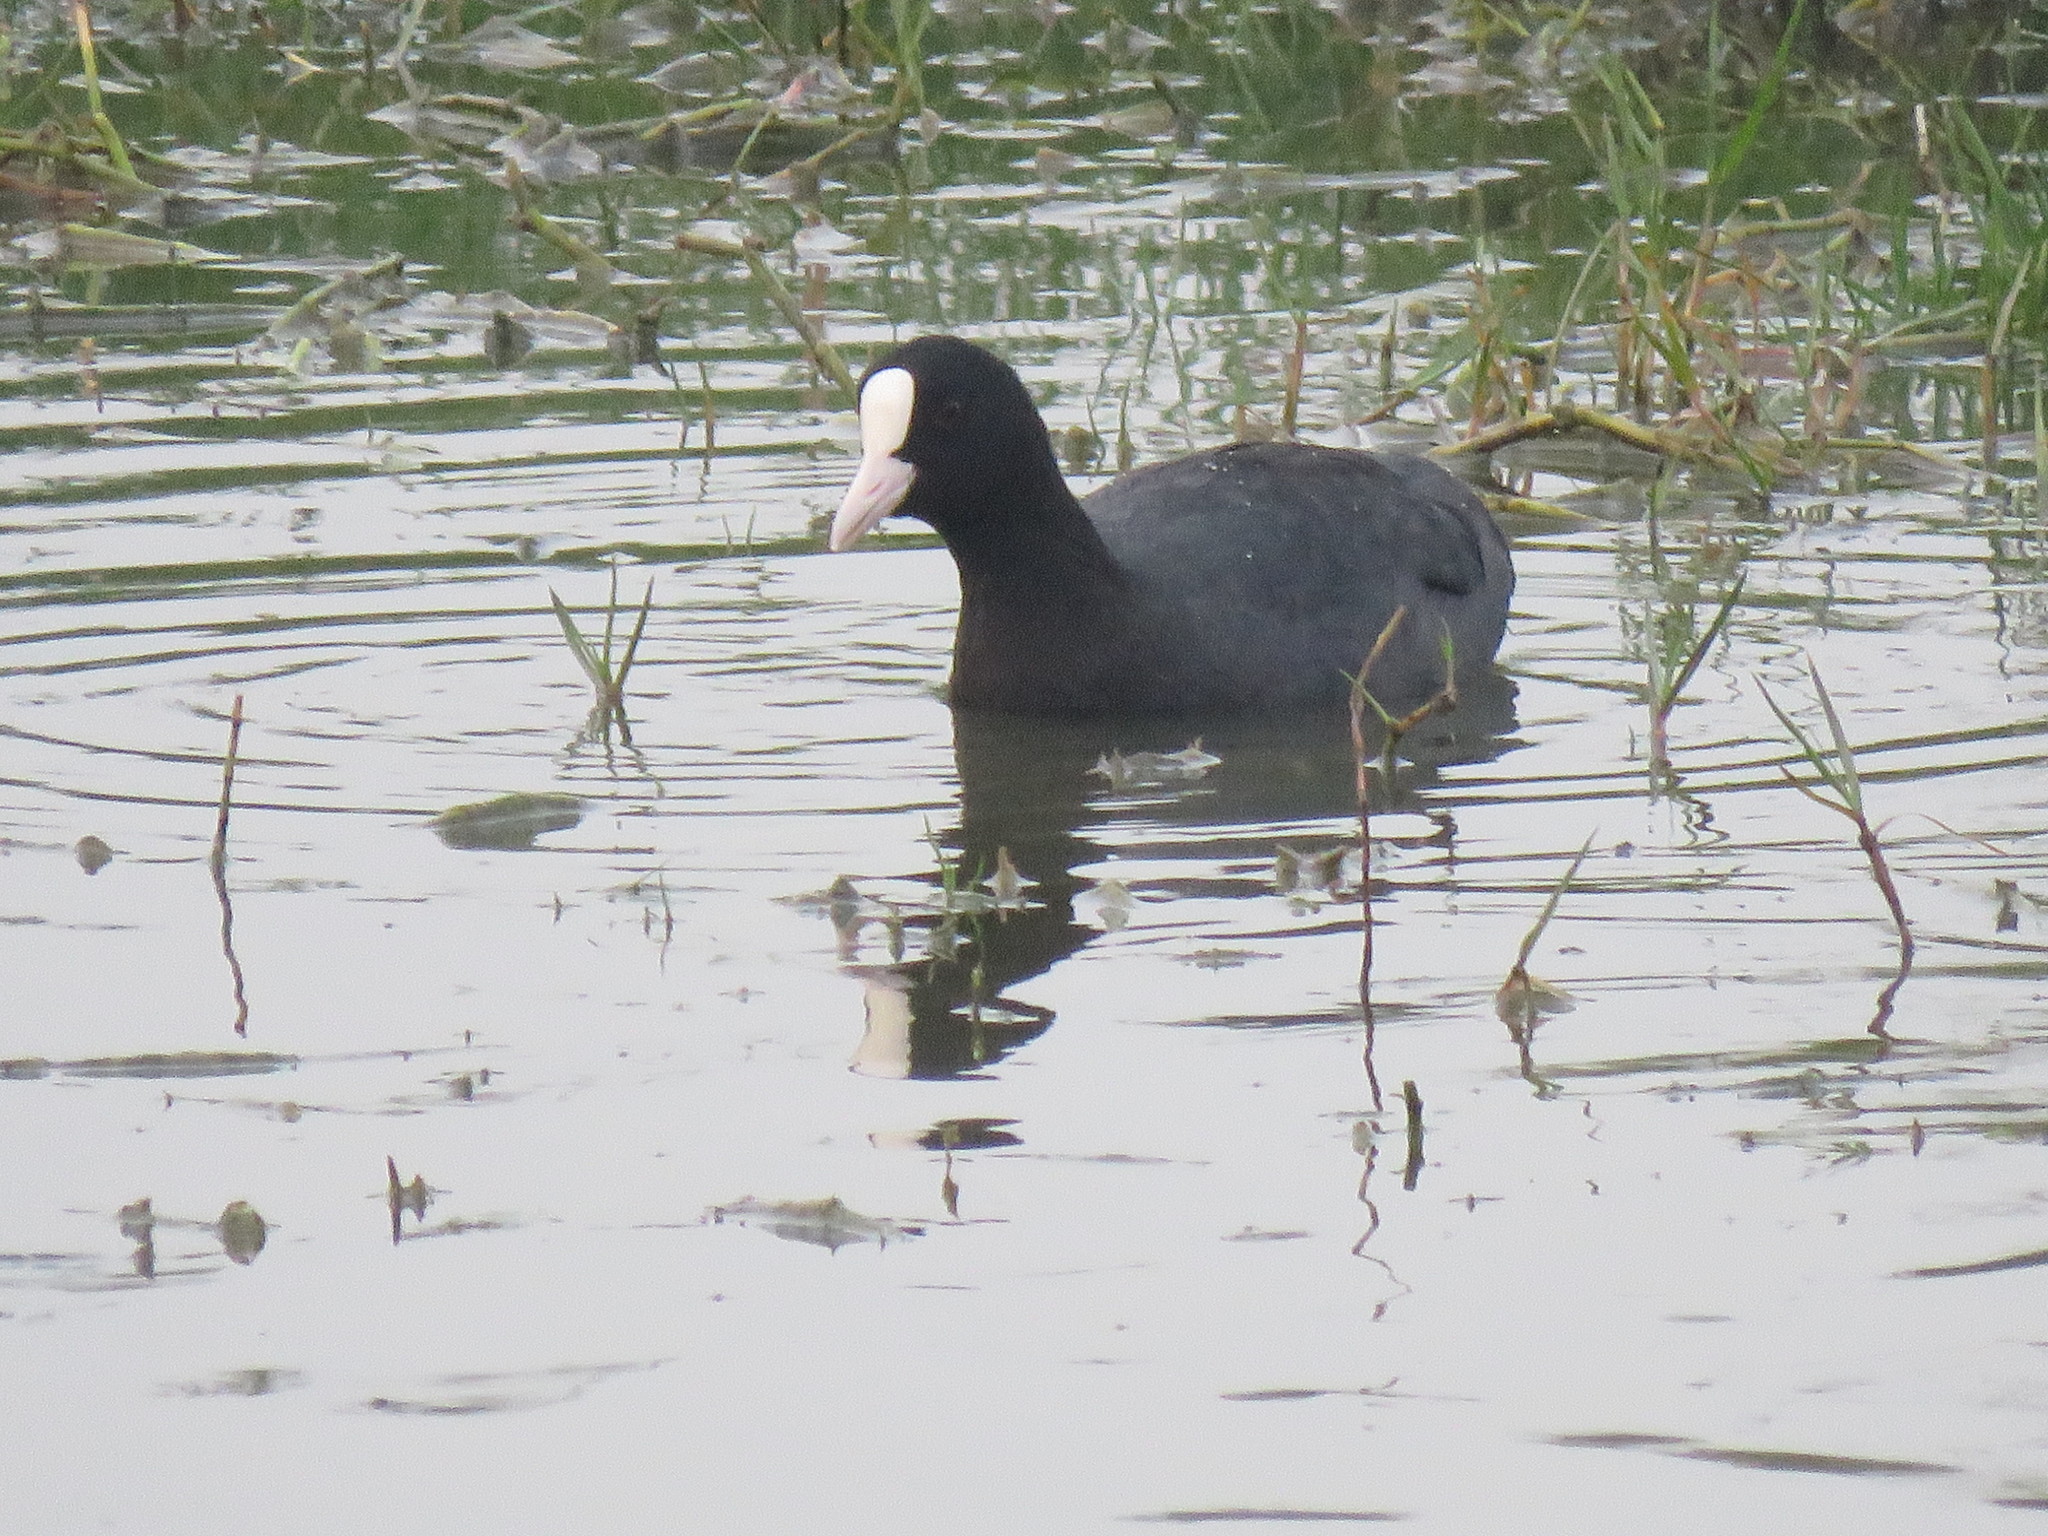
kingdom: Animalia
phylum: Chordata
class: Aves
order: Gruiformes
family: Rallidae
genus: Fulica
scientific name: Fulica atra
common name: Eurasian coot
